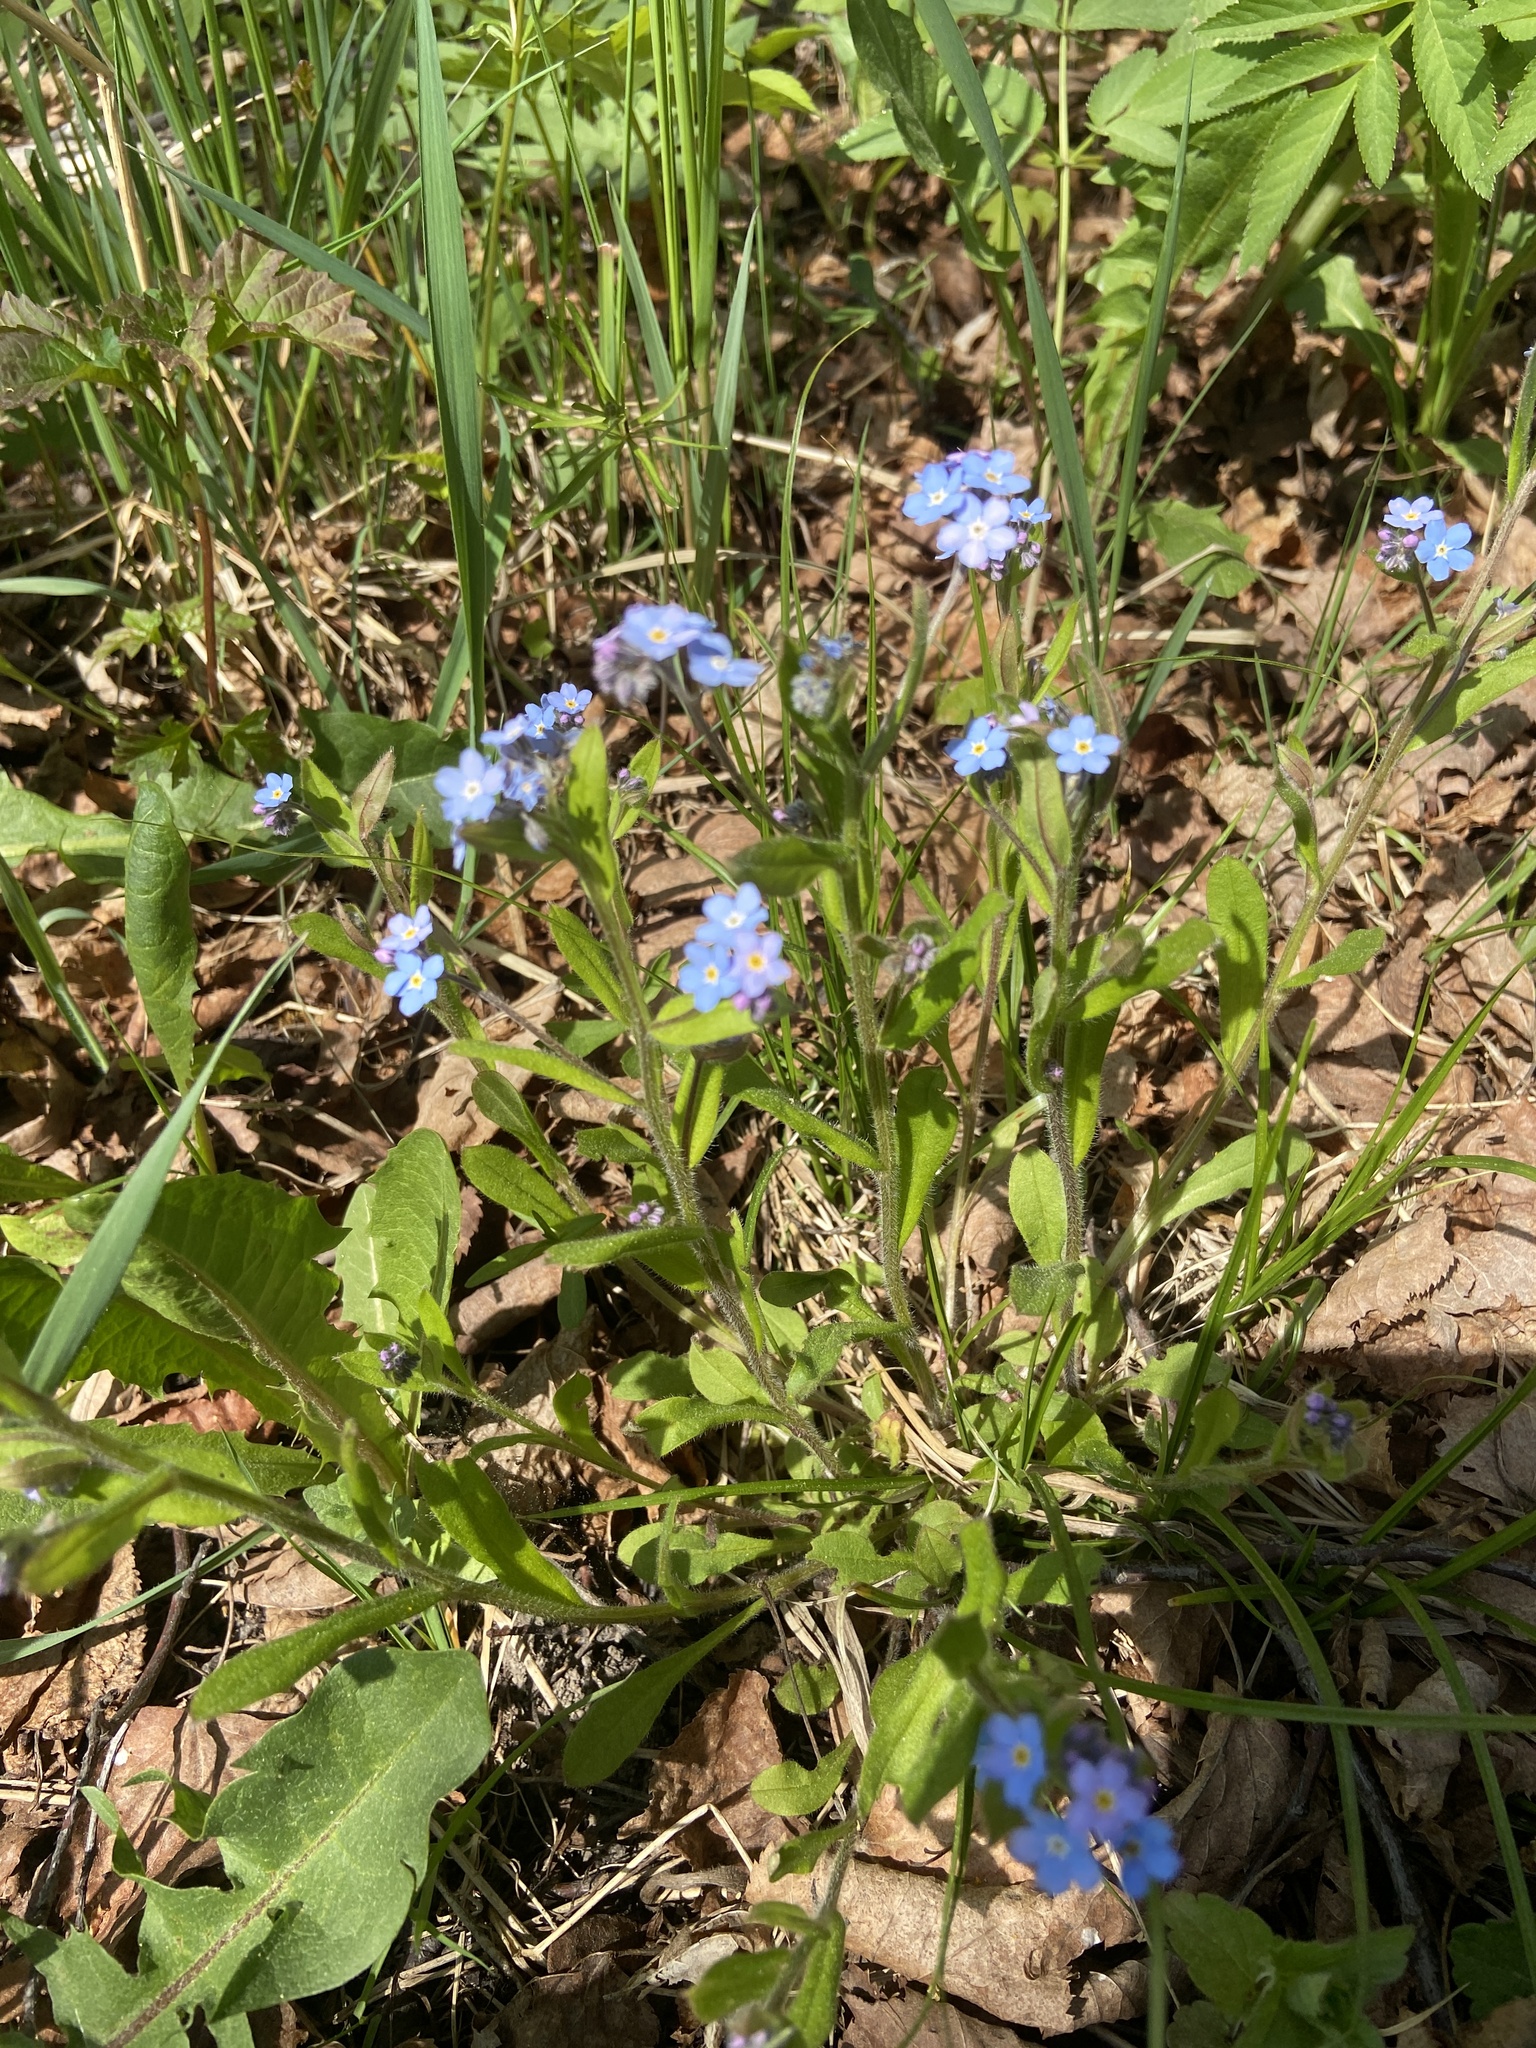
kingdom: Plantae
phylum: Tracheophyta
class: Magnoliopsida
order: Boraginales
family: Boraginaceae
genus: Myosotis
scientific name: Myosotis sylvatica
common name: Wood forget-me-not
